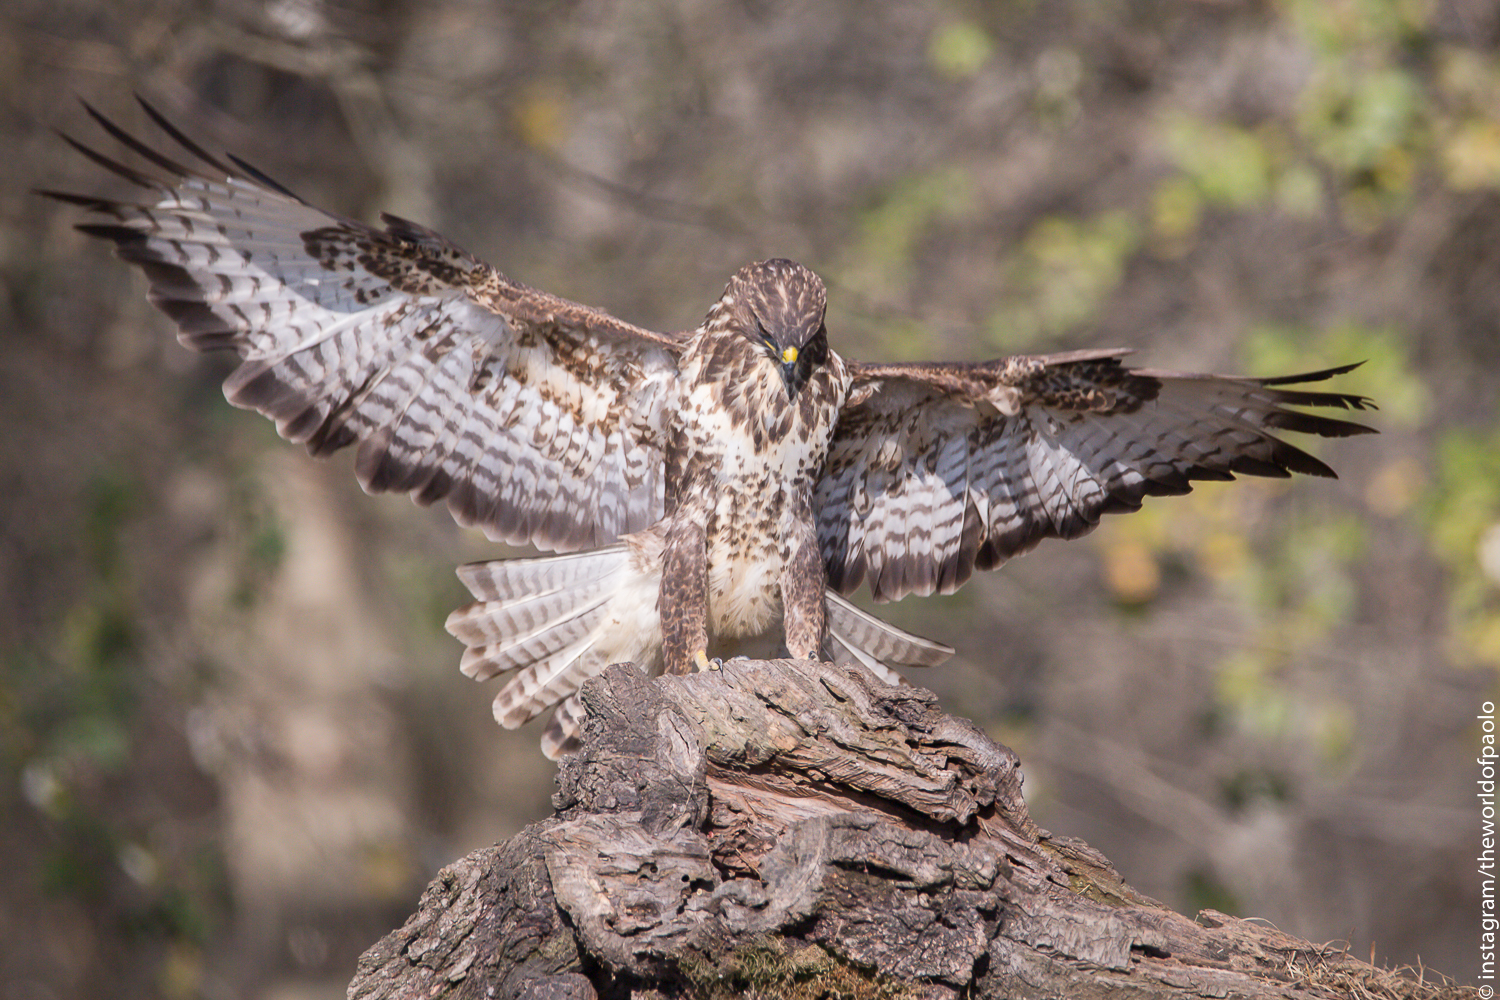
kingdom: Animalia
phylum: Chordata
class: Aves
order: Accipitriformes
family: Accipitridae
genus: Buteo
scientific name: Buteo buteo
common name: Common buzzard
